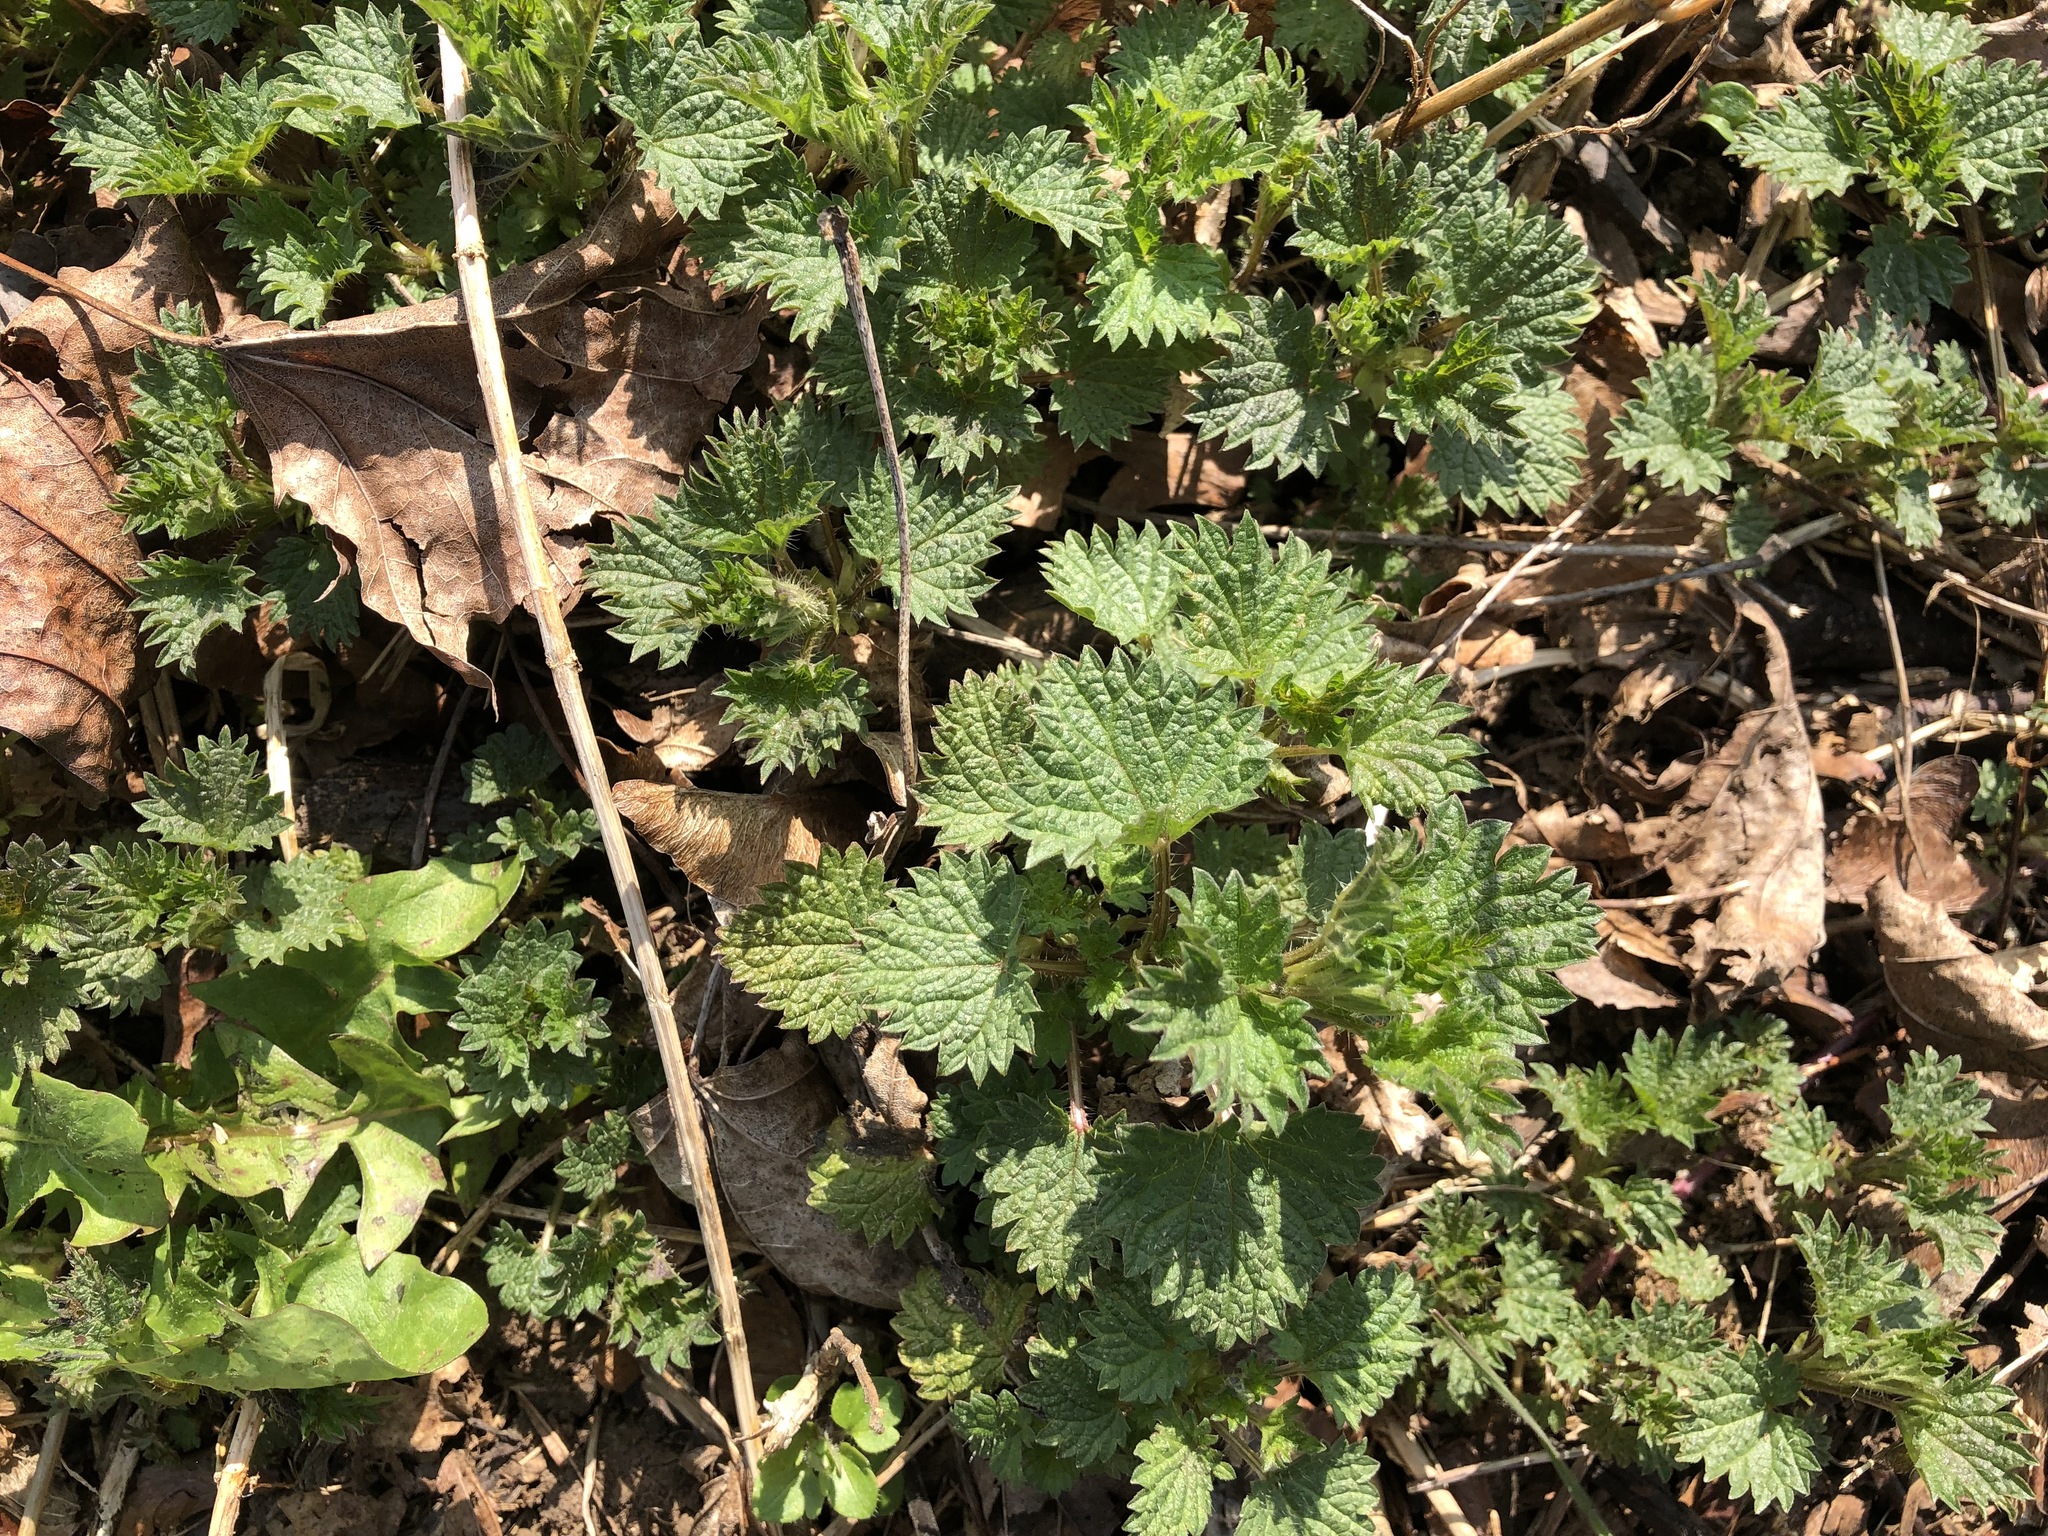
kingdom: Plantae
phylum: Tracheophyta
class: Magnoliopsida
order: Rosales
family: Urticaceae
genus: Urtica
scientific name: Urtica dioica
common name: Common nettle
